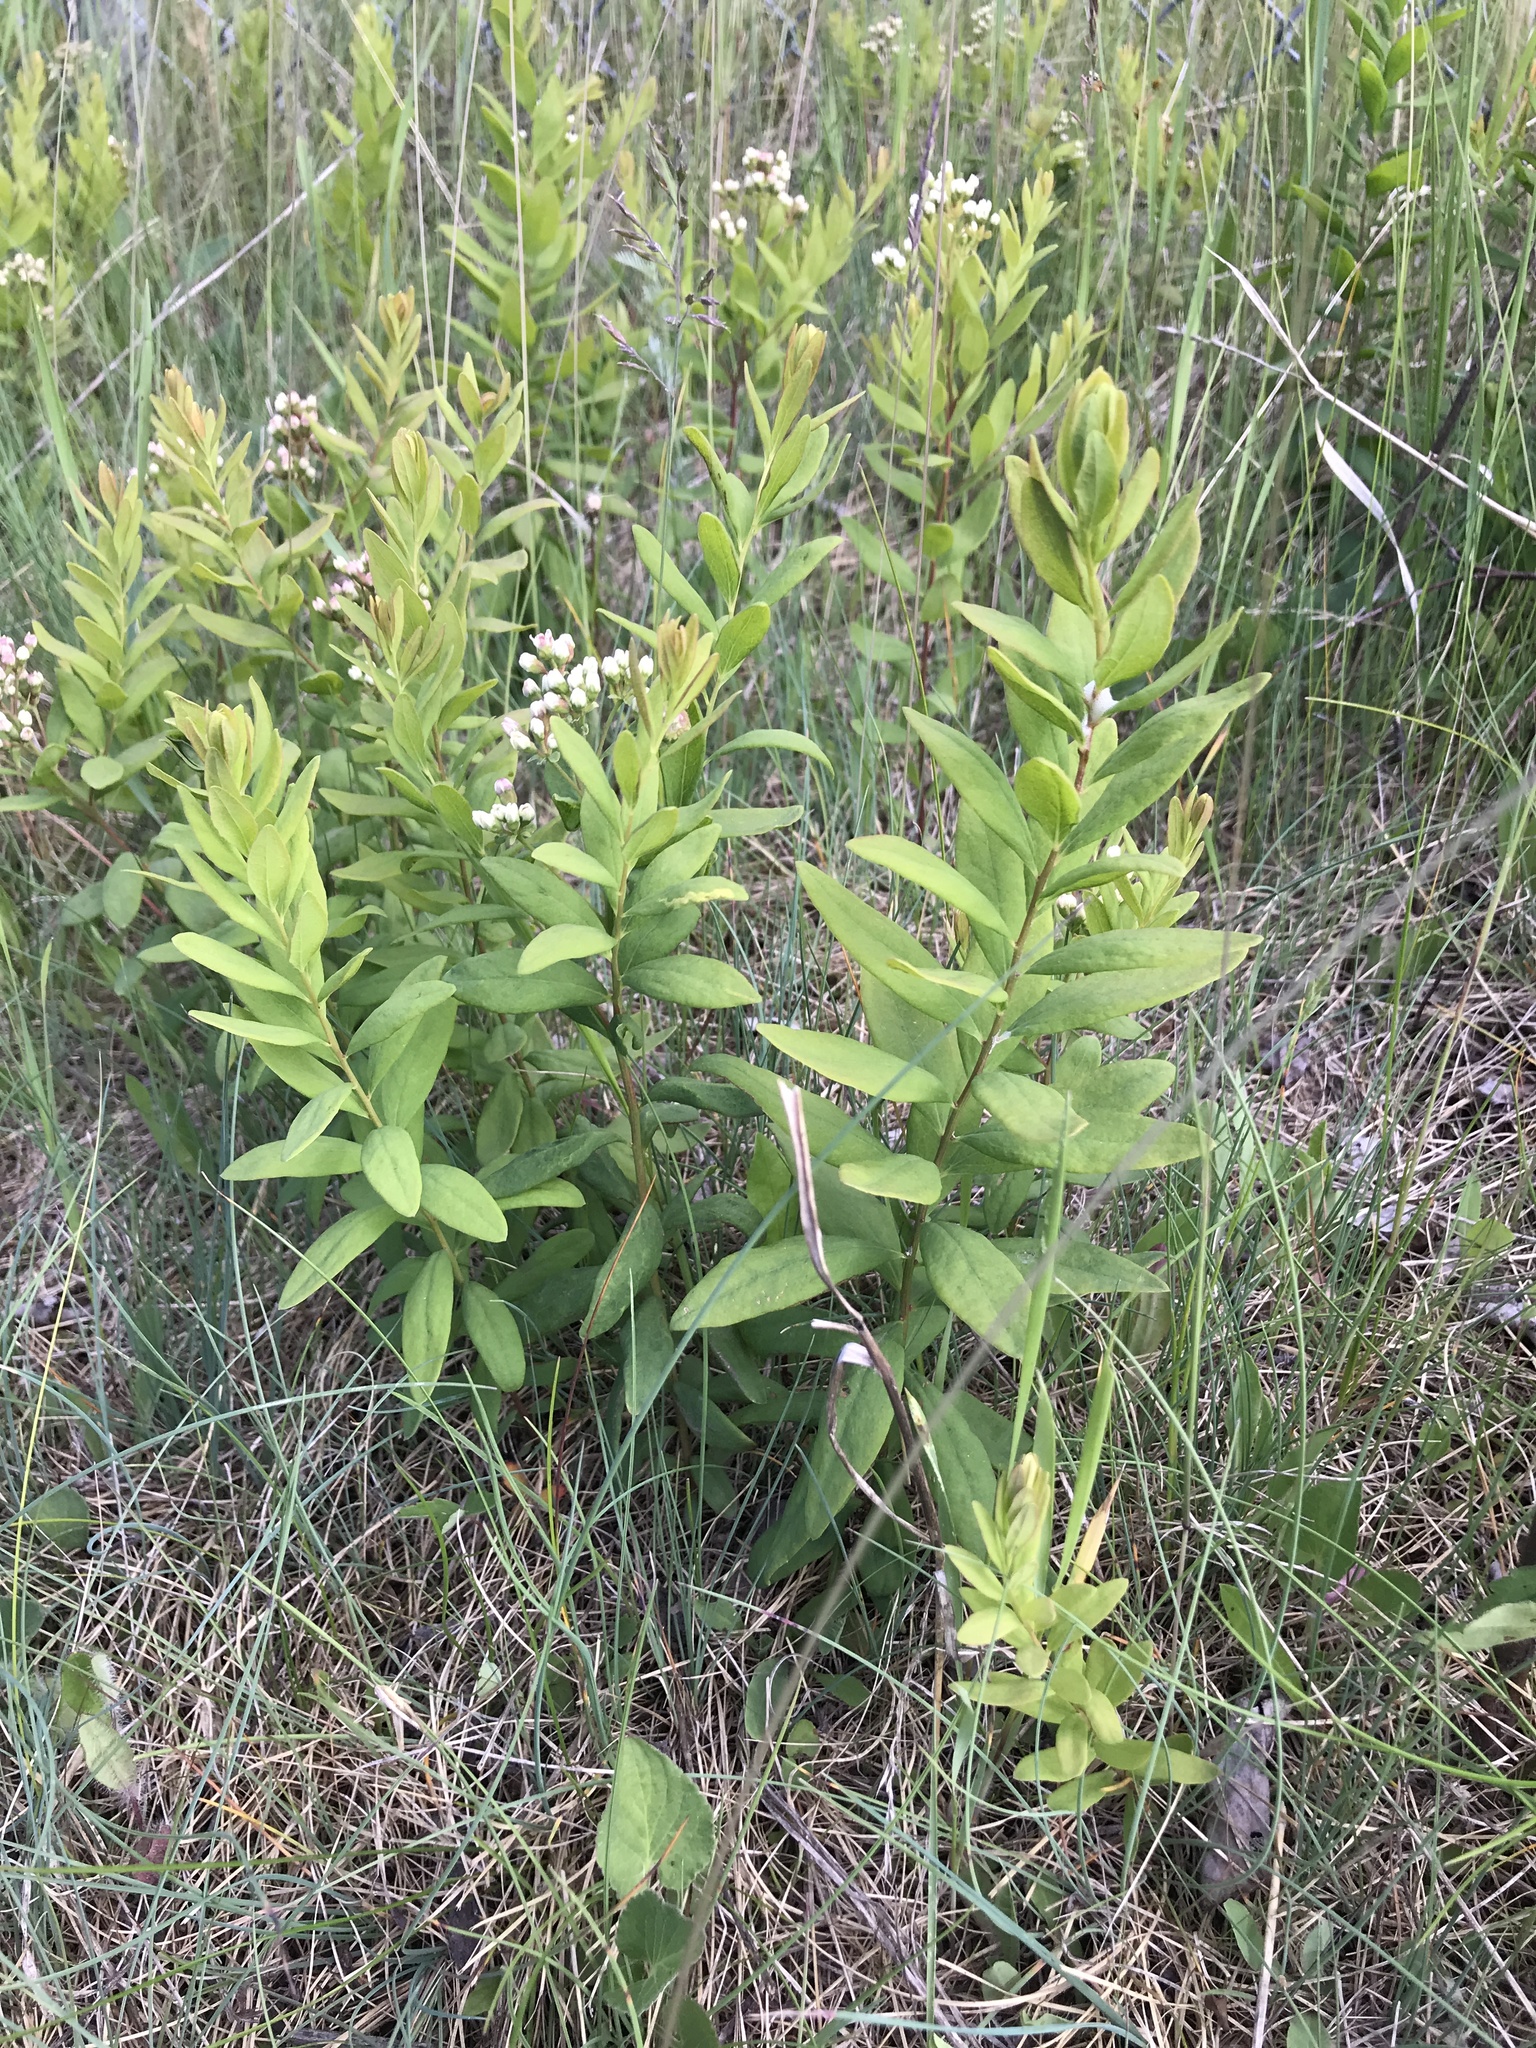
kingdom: Plantae
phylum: Tracheophyta
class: Magnoliopsida
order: Santalales
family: Comandraceae
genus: Comandra
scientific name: Comandra umbellata
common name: Bastard toadflax
